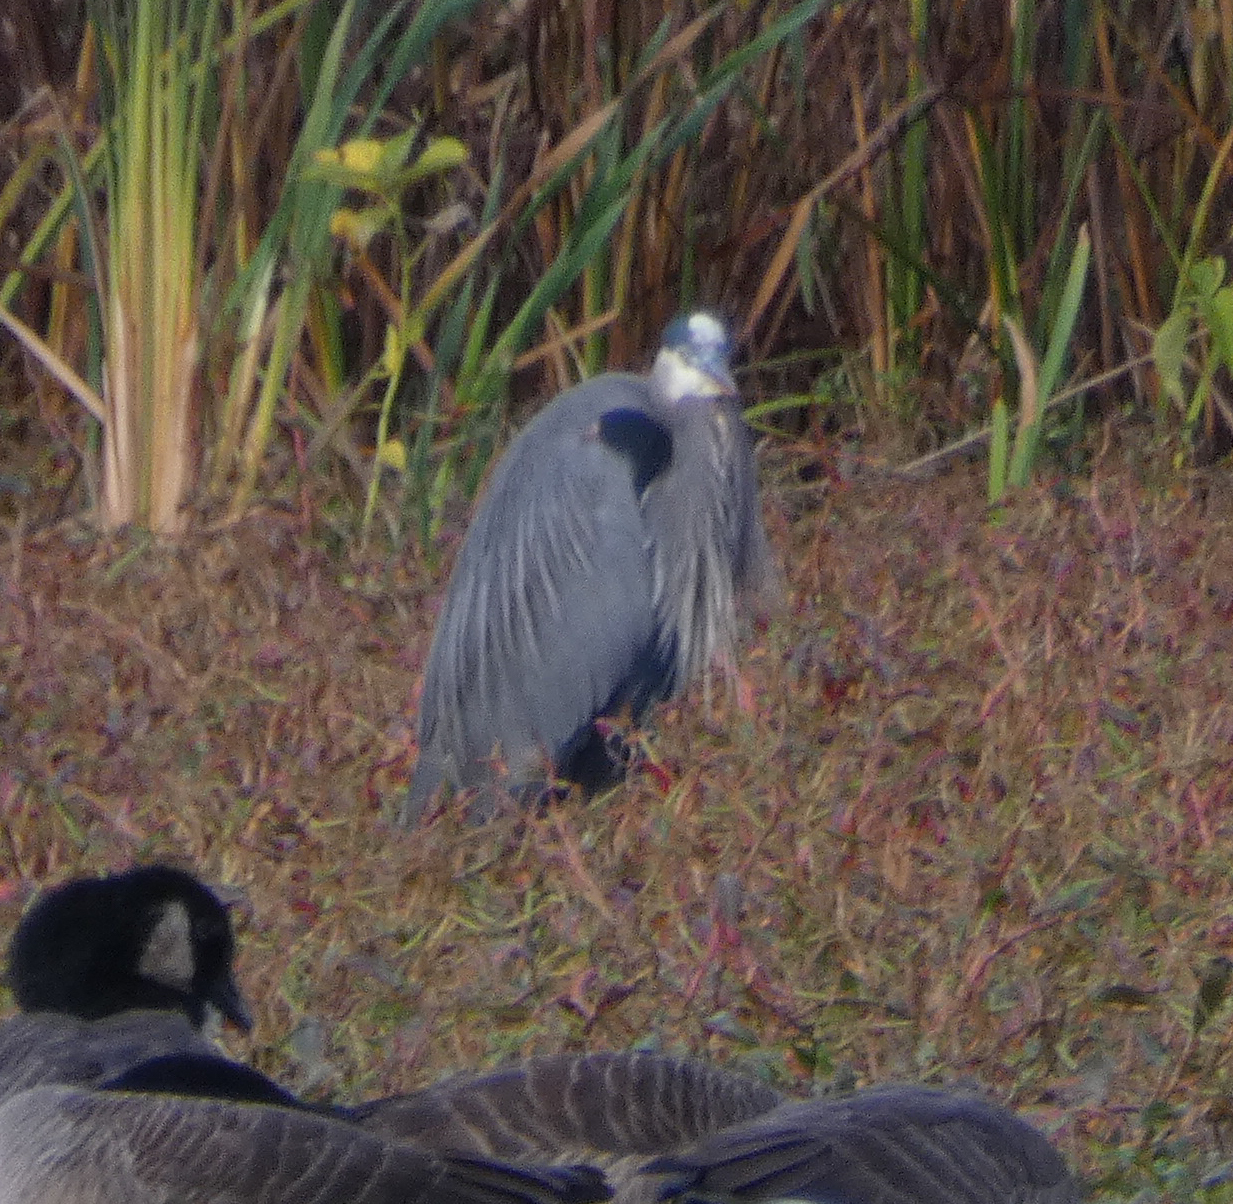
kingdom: Animalia
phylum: Chordata
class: Aves
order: Pelecaniformes
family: Ardeidae
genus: Ardea
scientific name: Ardea herodias
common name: Great blue heron
